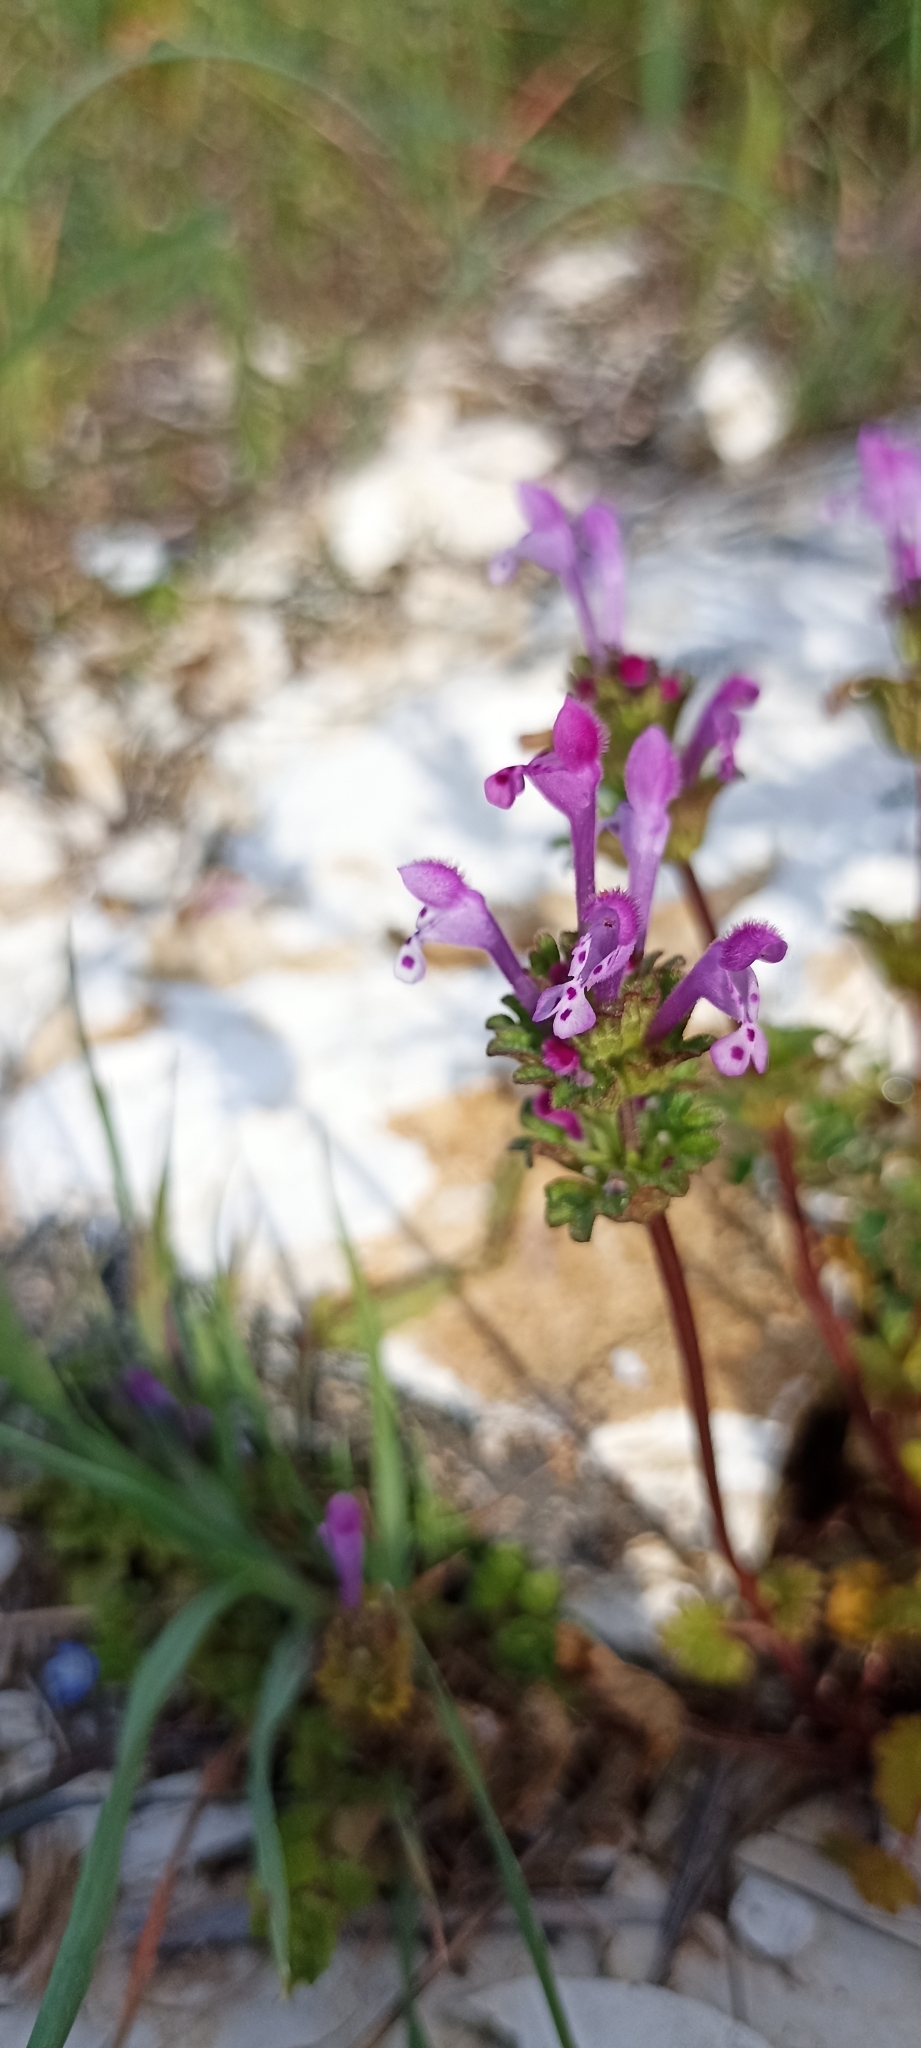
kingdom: Plantae
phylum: Tracheophyta
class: Magnoliopsida
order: Lamiales
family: Lamiaceae
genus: Lamium
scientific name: Lamium amplexicaule
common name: Henbit dead-nettle
